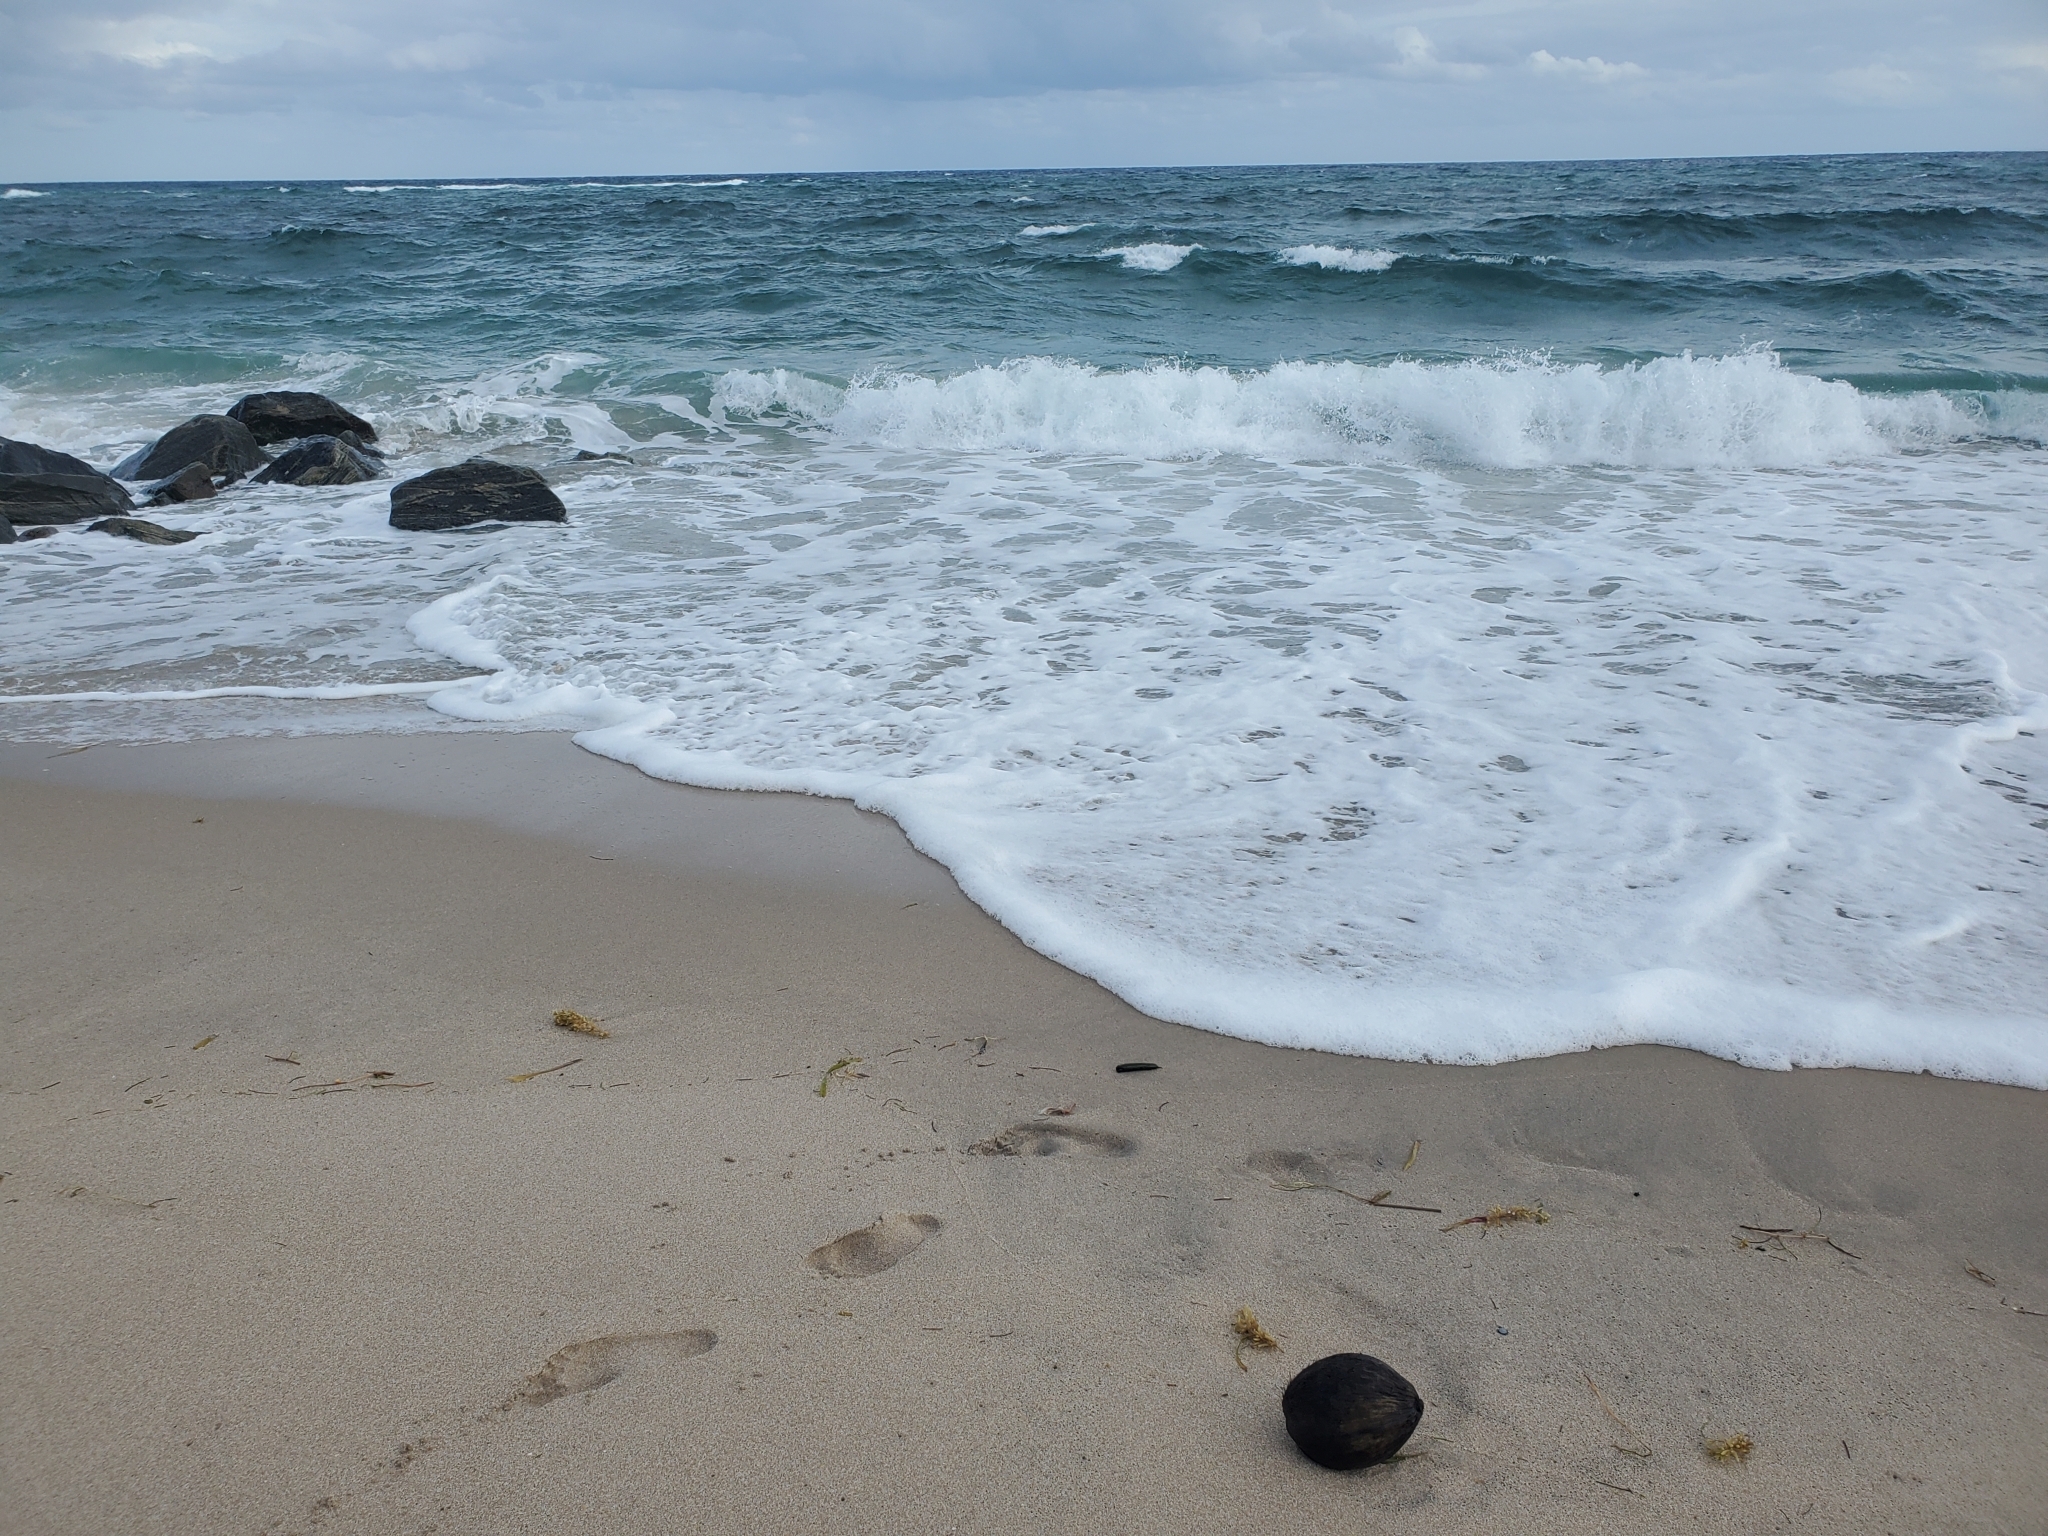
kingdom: Plantae
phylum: Tracheophyta
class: Liliopsida
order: Arecales
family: Arecaceae
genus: Cocos
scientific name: Cocos nucifera
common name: Coconut palm
